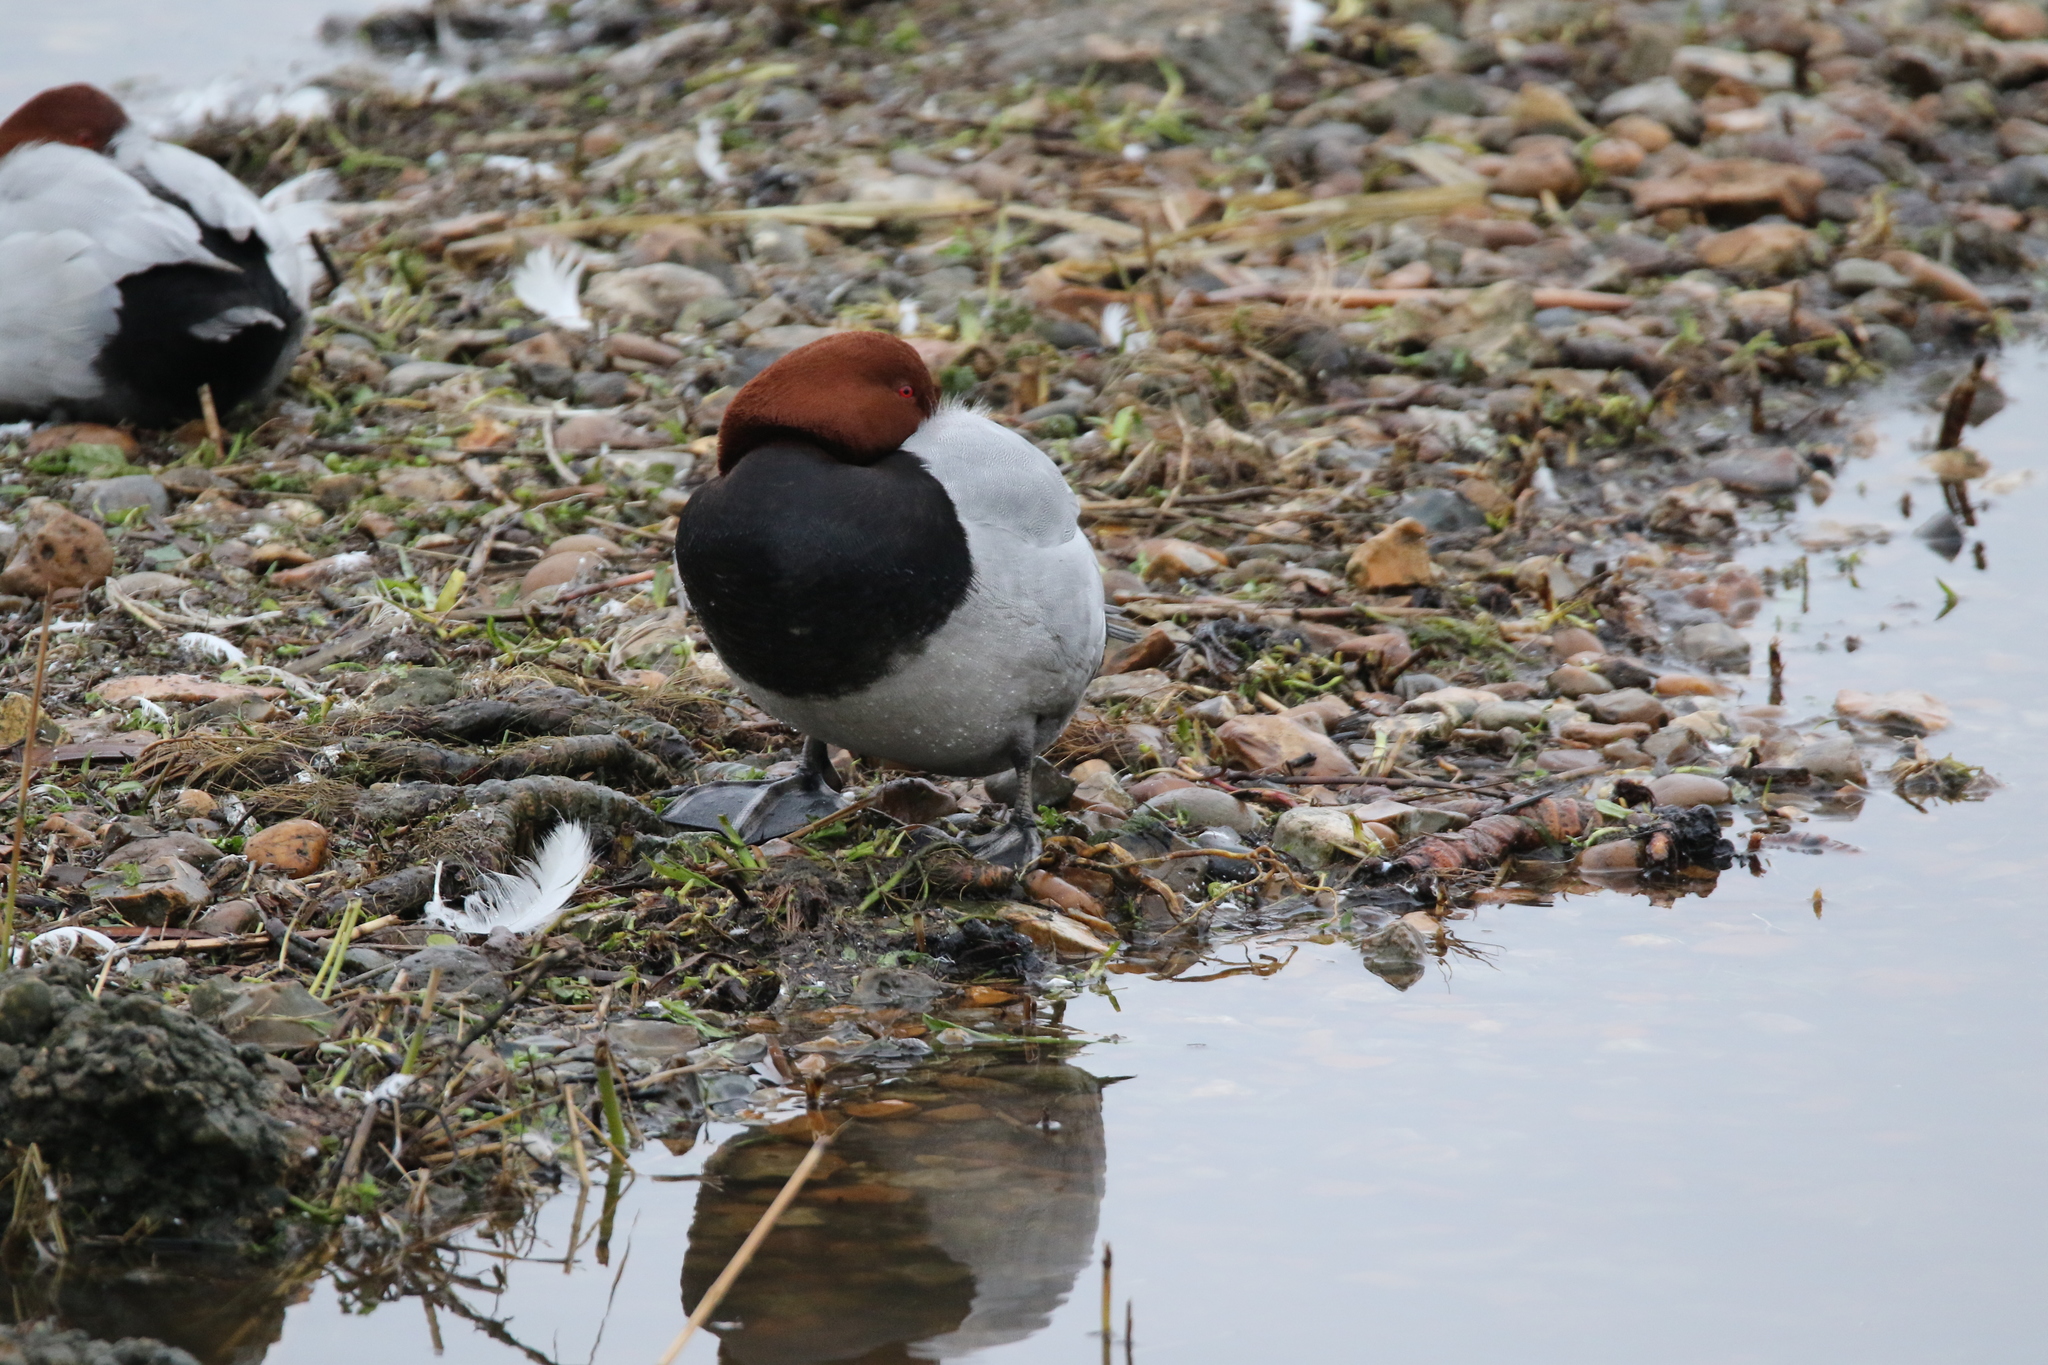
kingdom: Animalia
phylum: Chordata
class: Aves
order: Anseriformes
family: Anatidae
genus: Aythya
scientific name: Aythya ferina
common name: Common pochard
